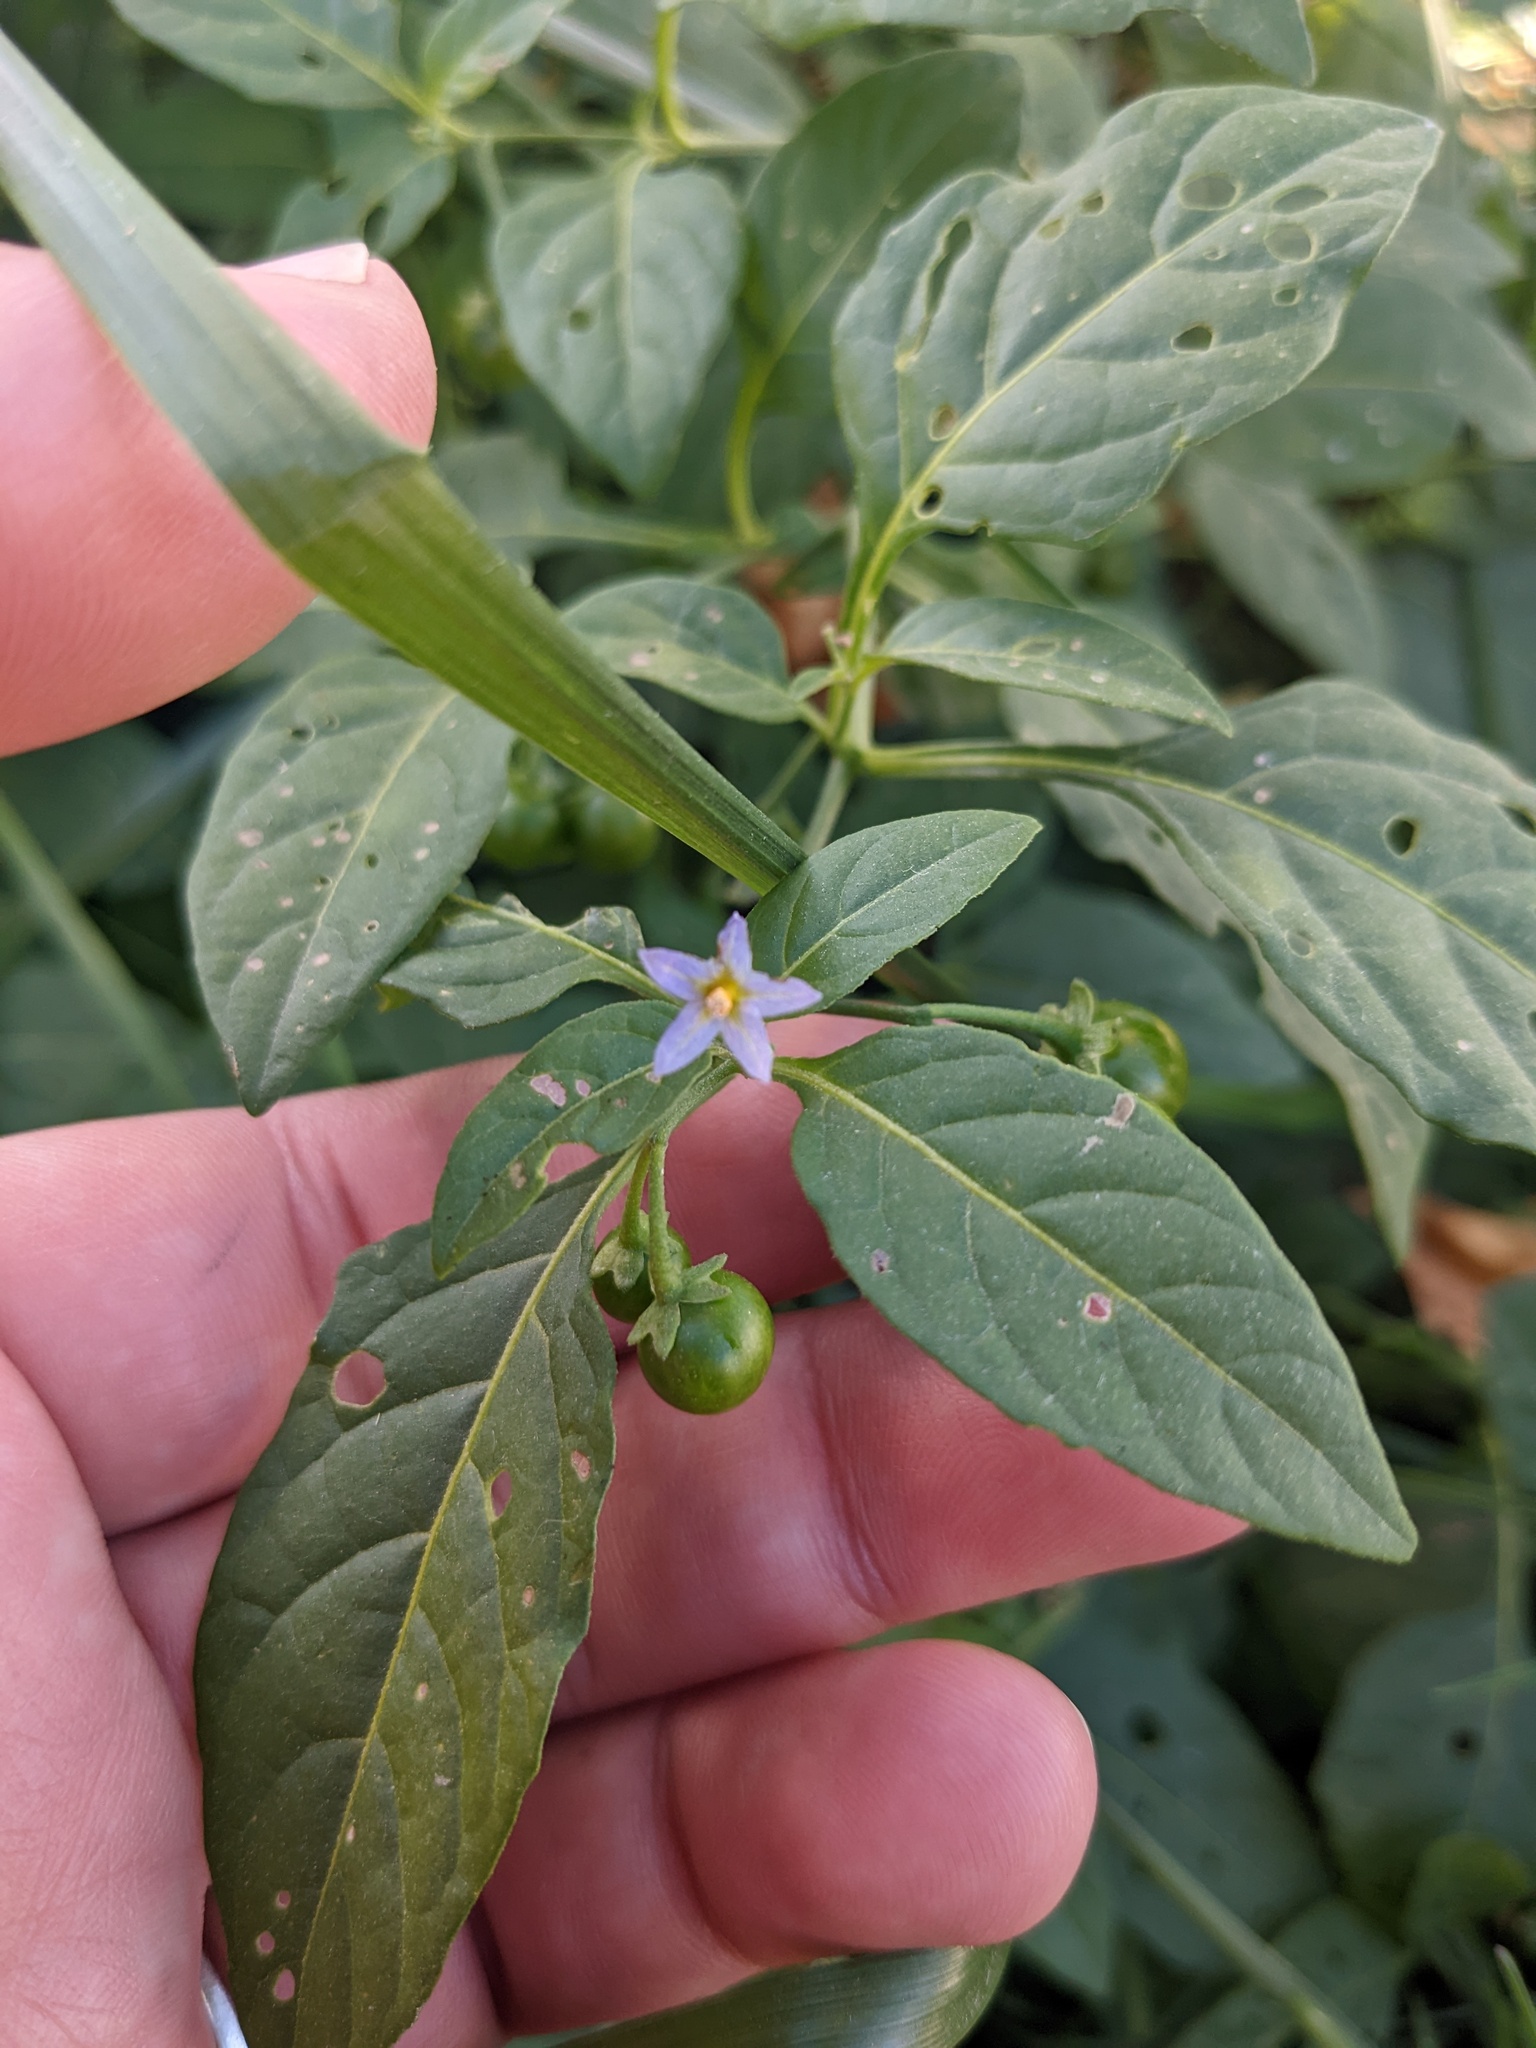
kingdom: Plantae
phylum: Tracheophyta
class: Magnoliopsida
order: Solanales
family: Solanaceae
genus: Solanum
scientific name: Solanum emulans
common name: Eastern black nightshade
